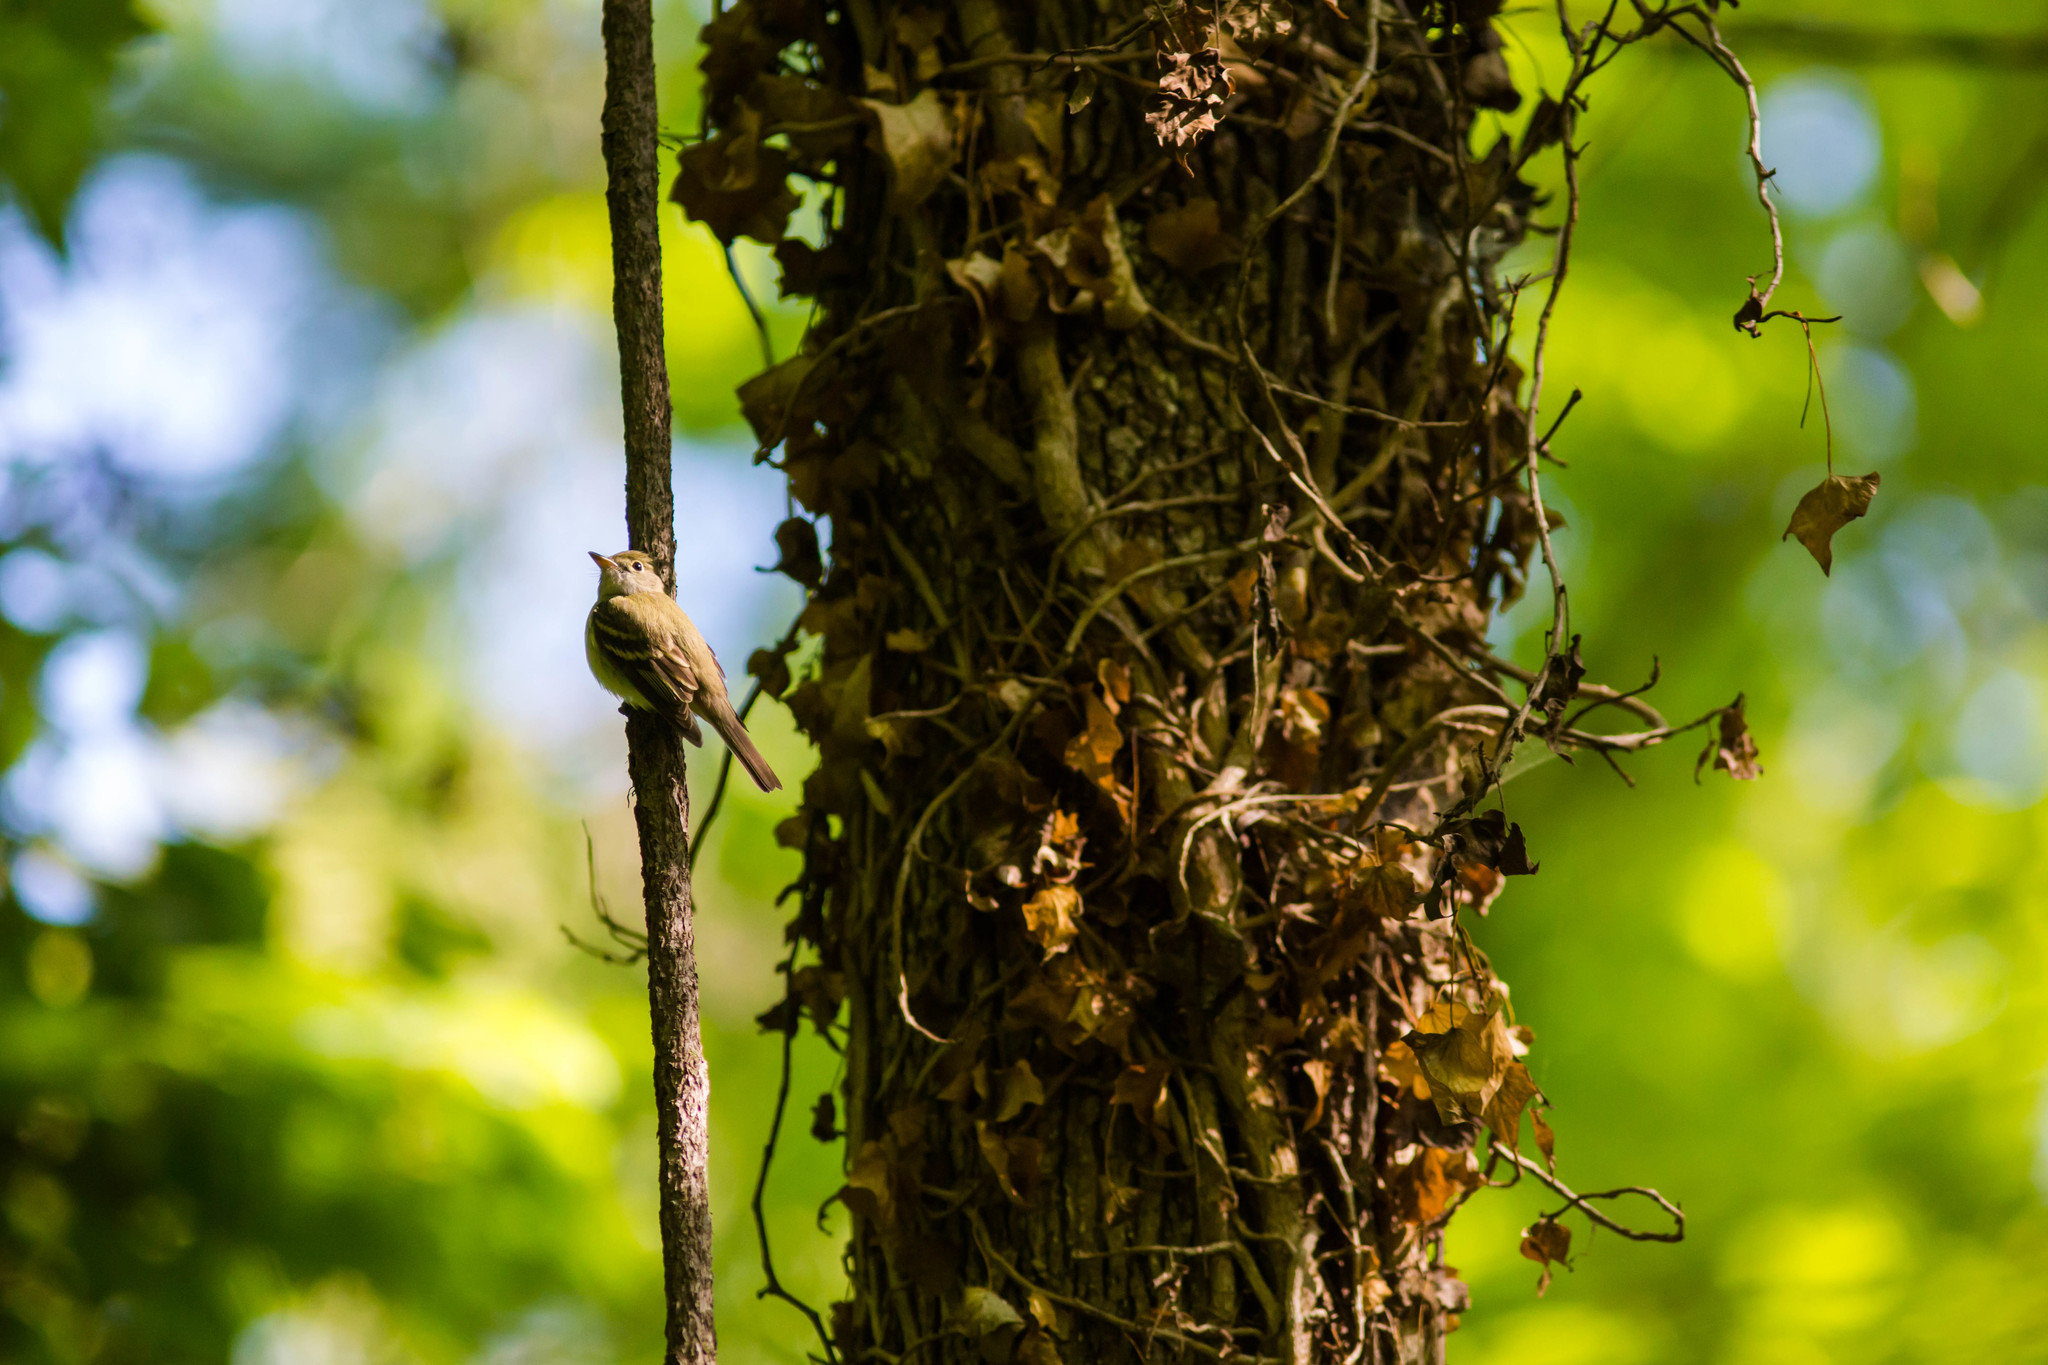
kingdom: Animalia
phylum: Chordata
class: Aves
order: Passeriformes
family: Tyrannidae
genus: Empidonax
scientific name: Empidonax virescens
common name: Acadian flycatcher
